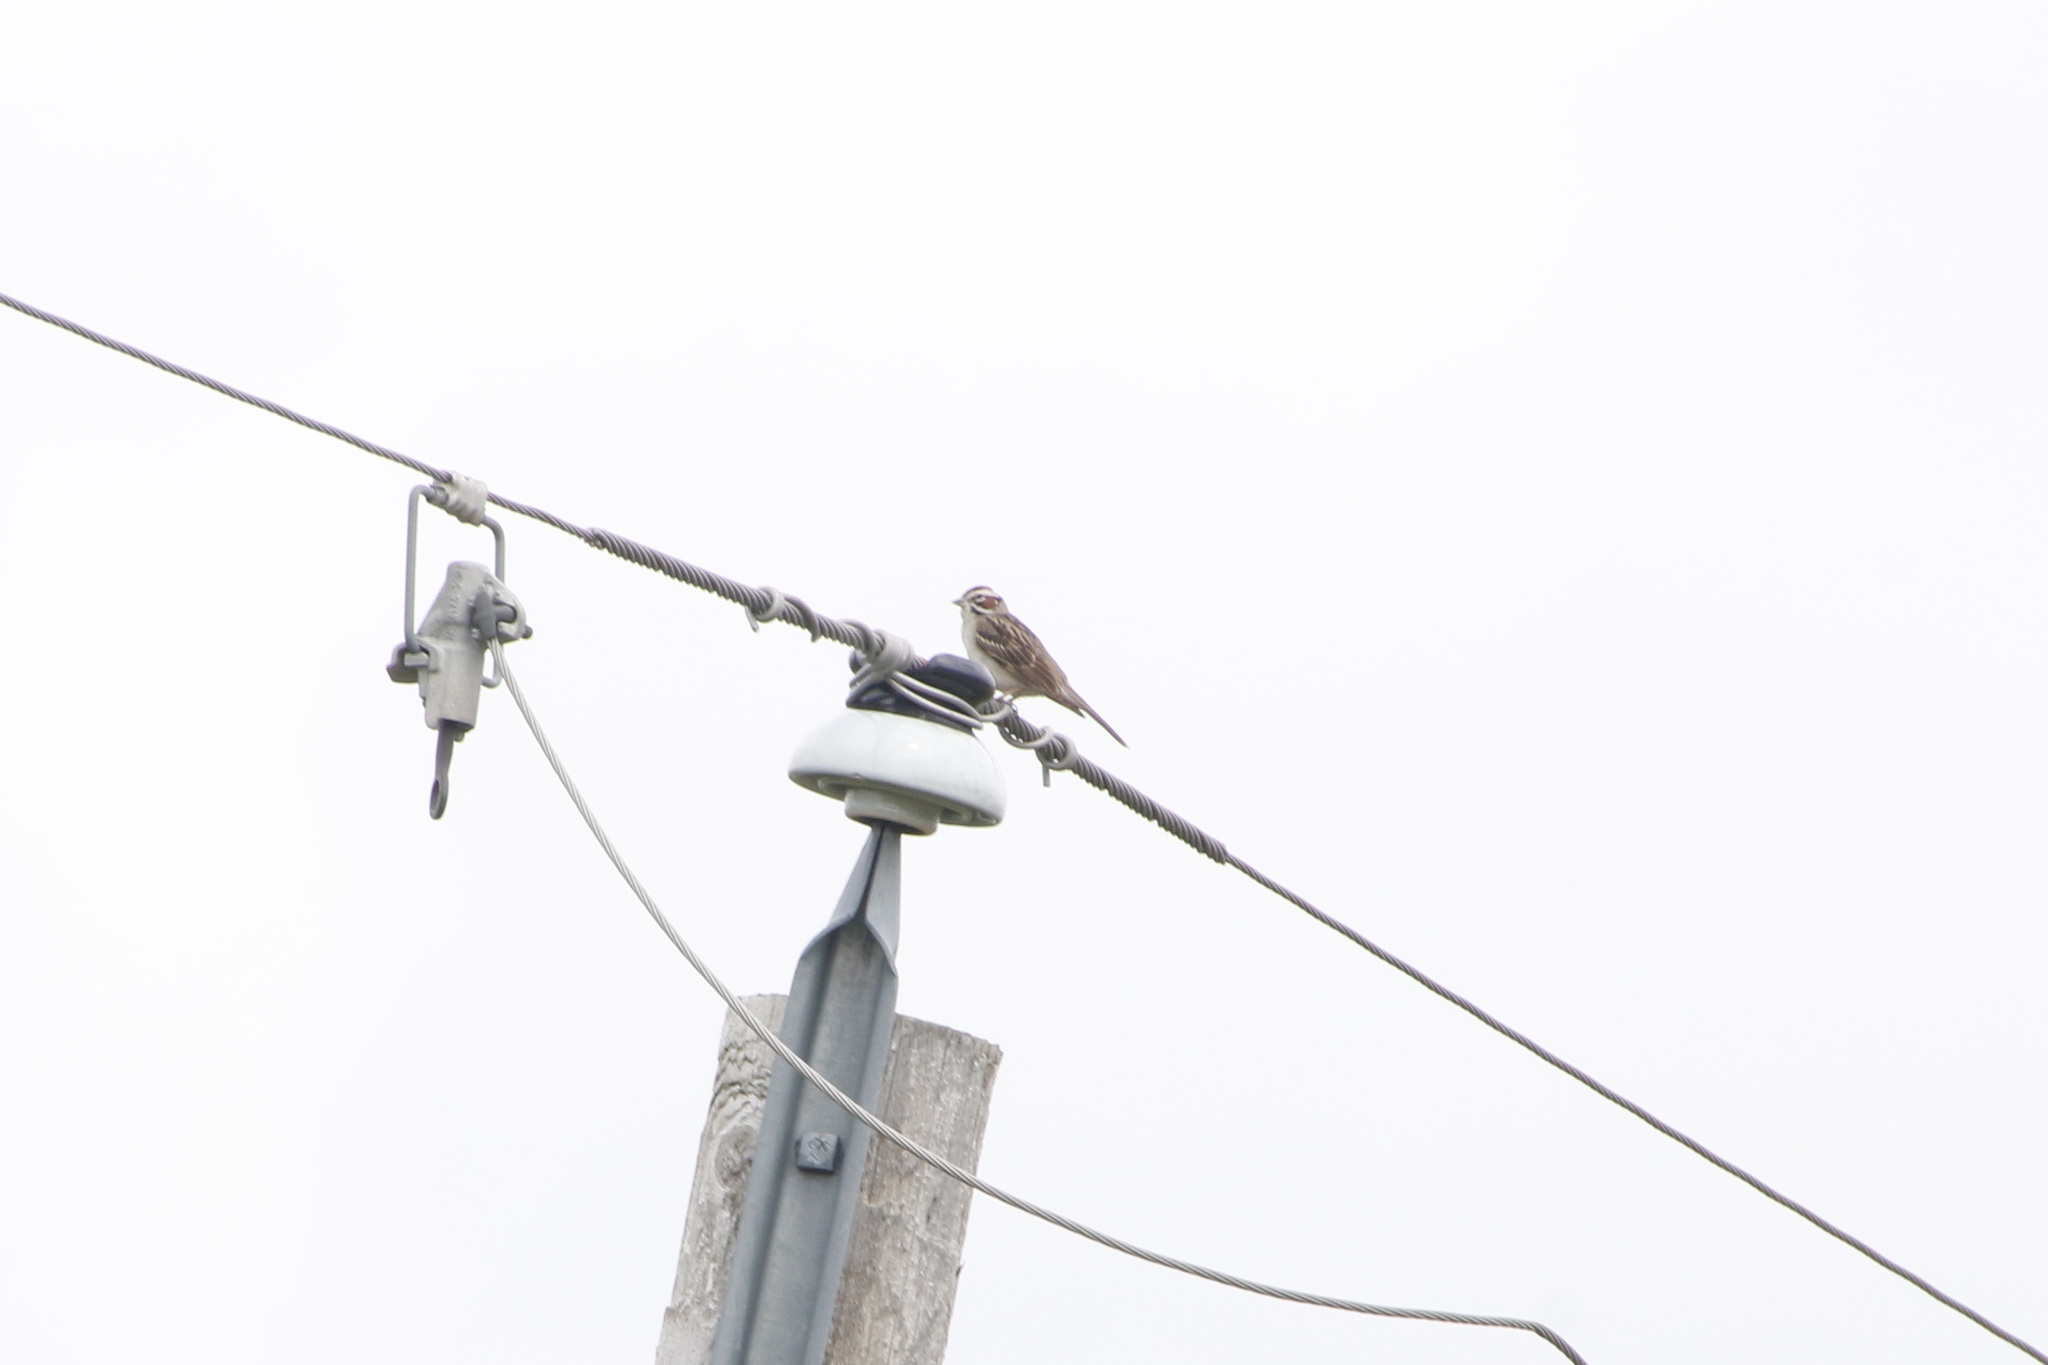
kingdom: Animalia
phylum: Chordata
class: Aves
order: Passeriformes
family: Passerellidae
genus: Chondestes
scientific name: Chondestes grammacus
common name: Lark sparrow
